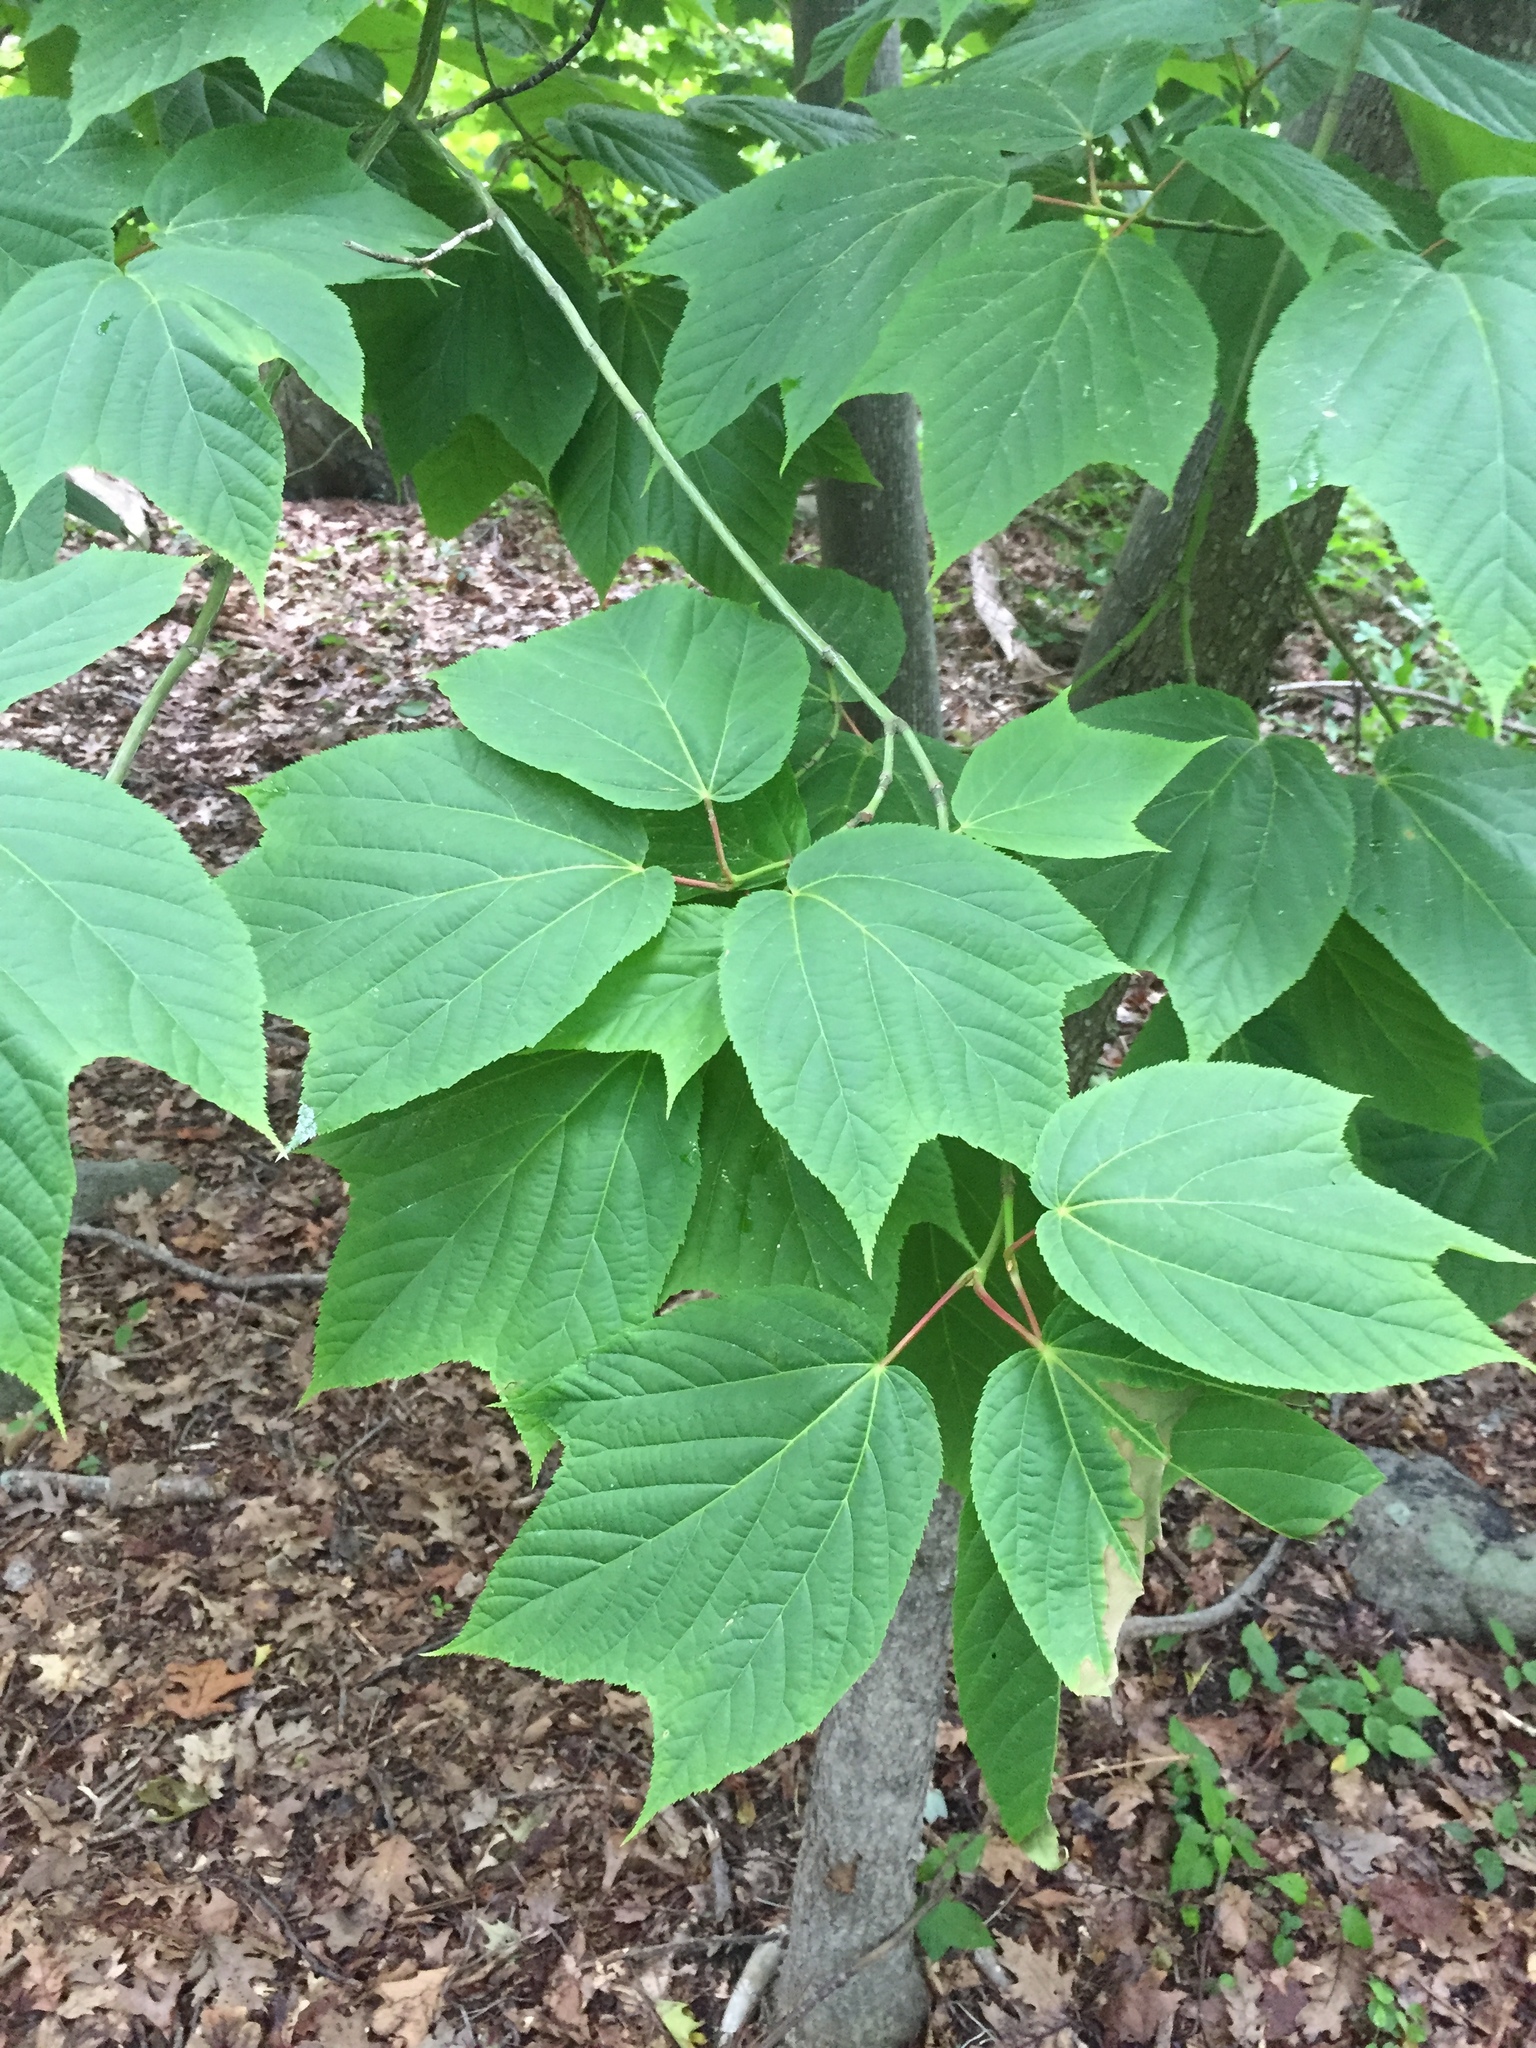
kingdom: Plantae
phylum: Tracheophyta
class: Magnoliopsida
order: Sapindales
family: Sapindaceae
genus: Acer
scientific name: Acer pensylvanicum
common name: Moosewood
